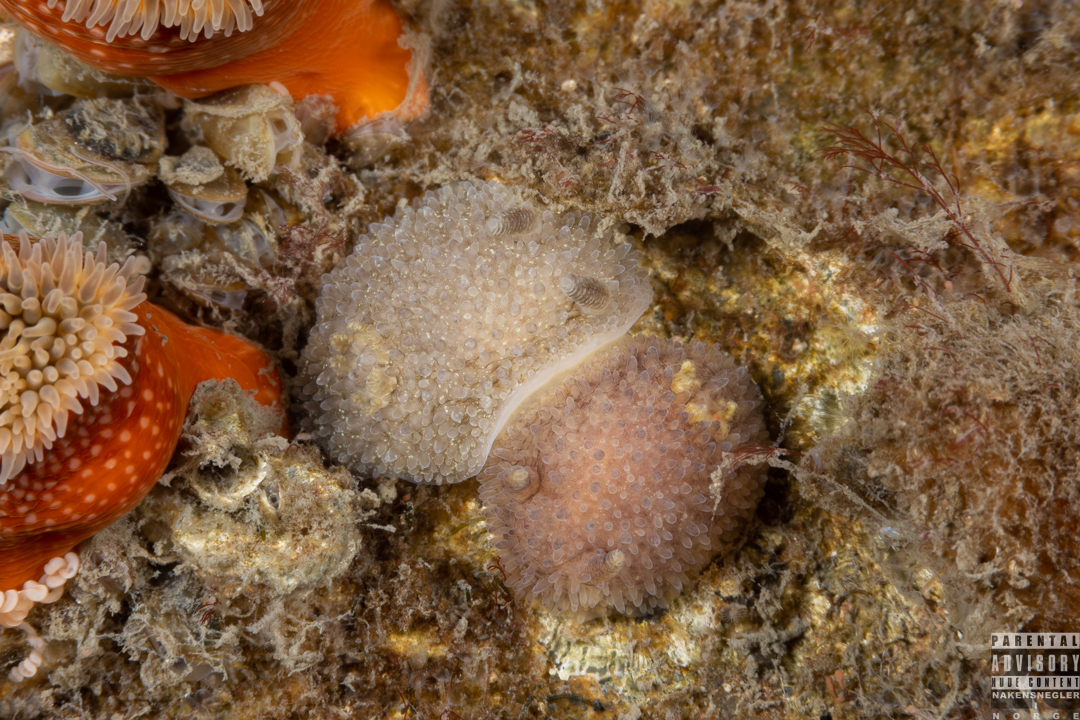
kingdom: Animalia
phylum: Mollusca
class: Gastropoda
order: Nudibranchia
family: Onchidorididae
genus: Acanthodoris
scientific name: Acanthodoris pilosa
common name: Hairy spiny doris
